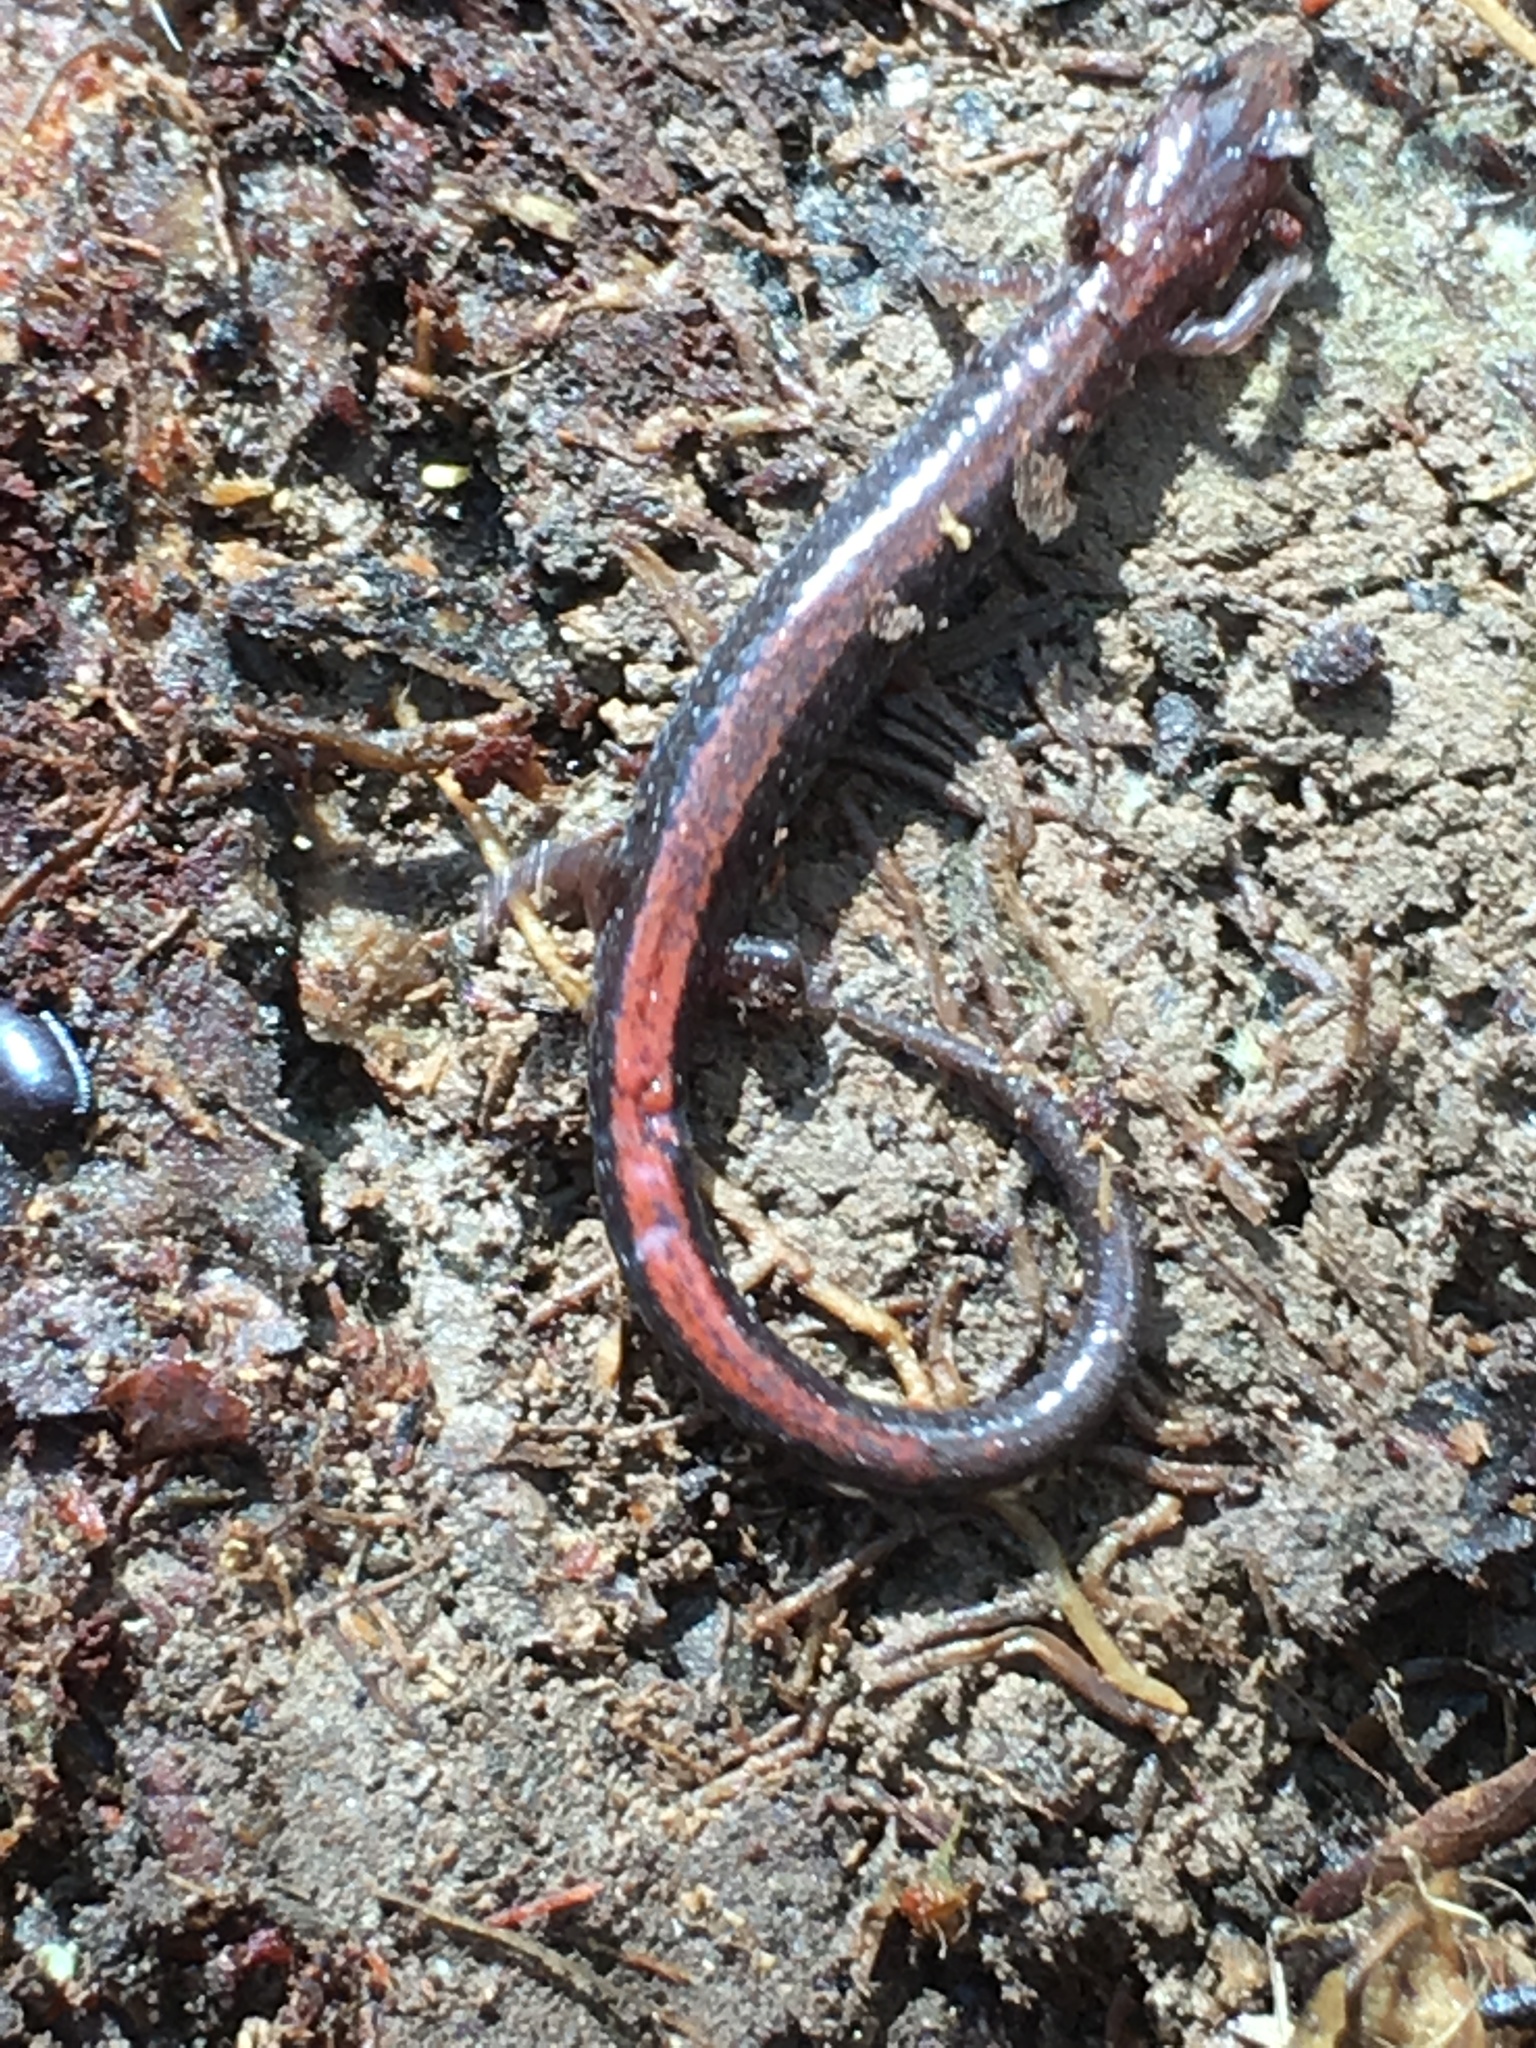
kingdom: Animalia
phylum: Chordata
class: Amphibia
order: Caudata
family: Plethodontidae
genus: Plethodon
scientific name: Plethodon cinereus
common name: Redback salamander
